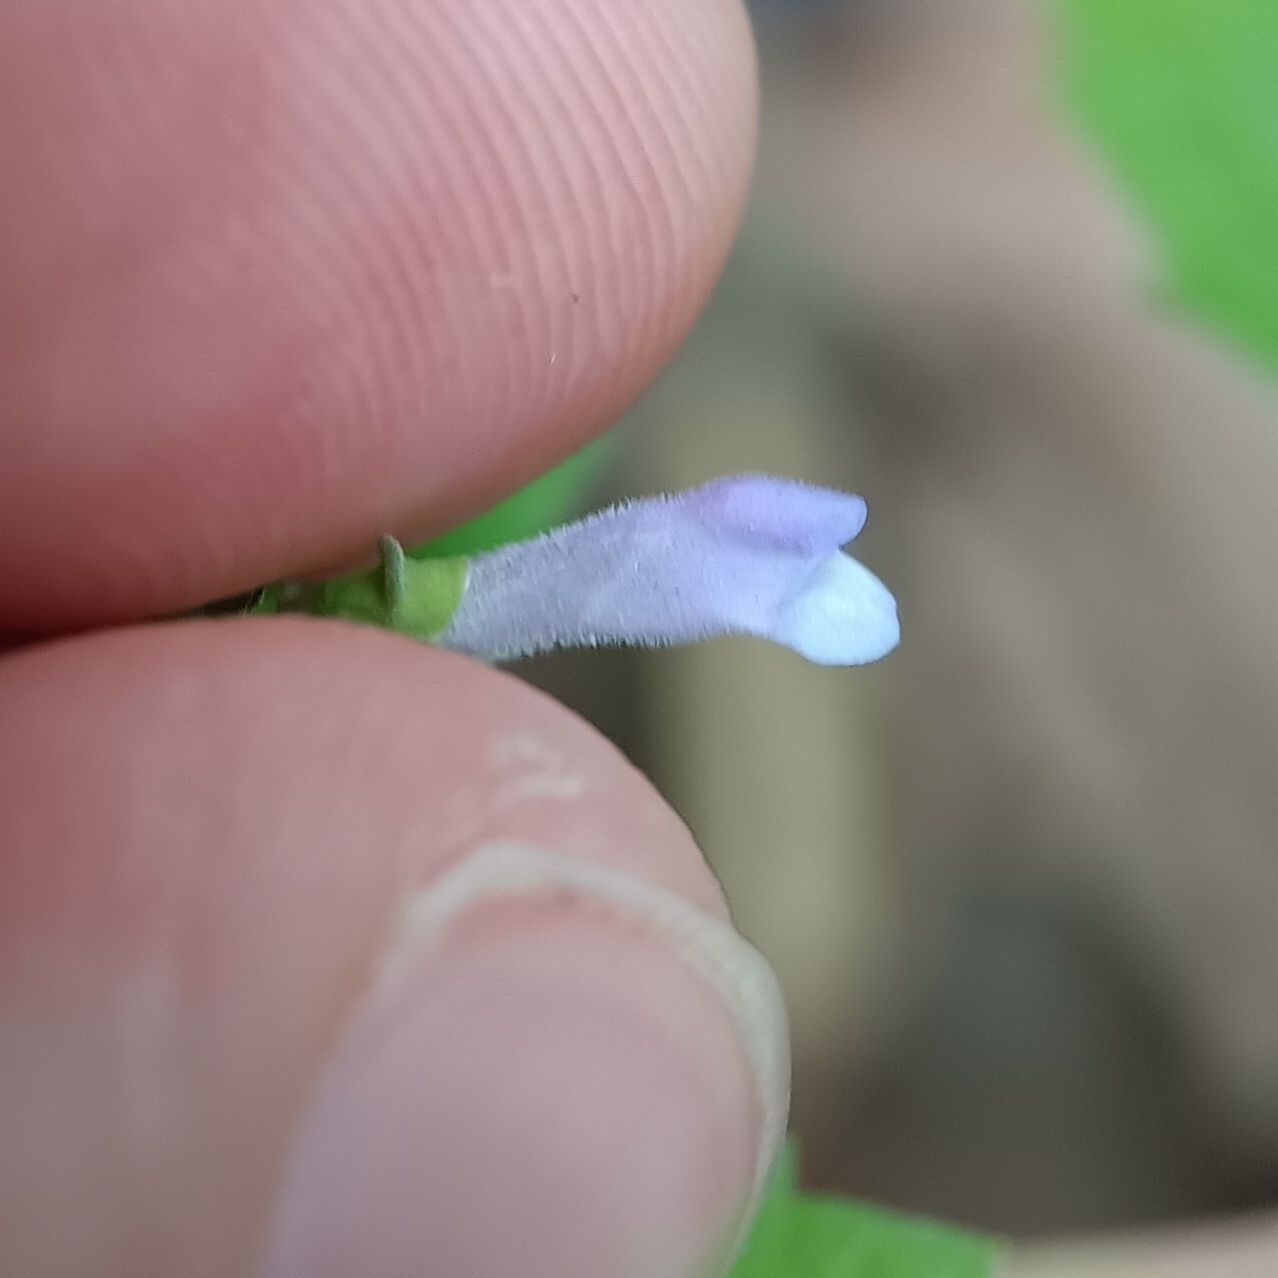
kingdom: Plantae
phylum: Tracheophyta
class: Magnoliopsida
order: Lamiales
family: Lamiaceae
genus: Scutellaria
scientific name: Scutellaria lateriflora
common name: Blue skullcap
